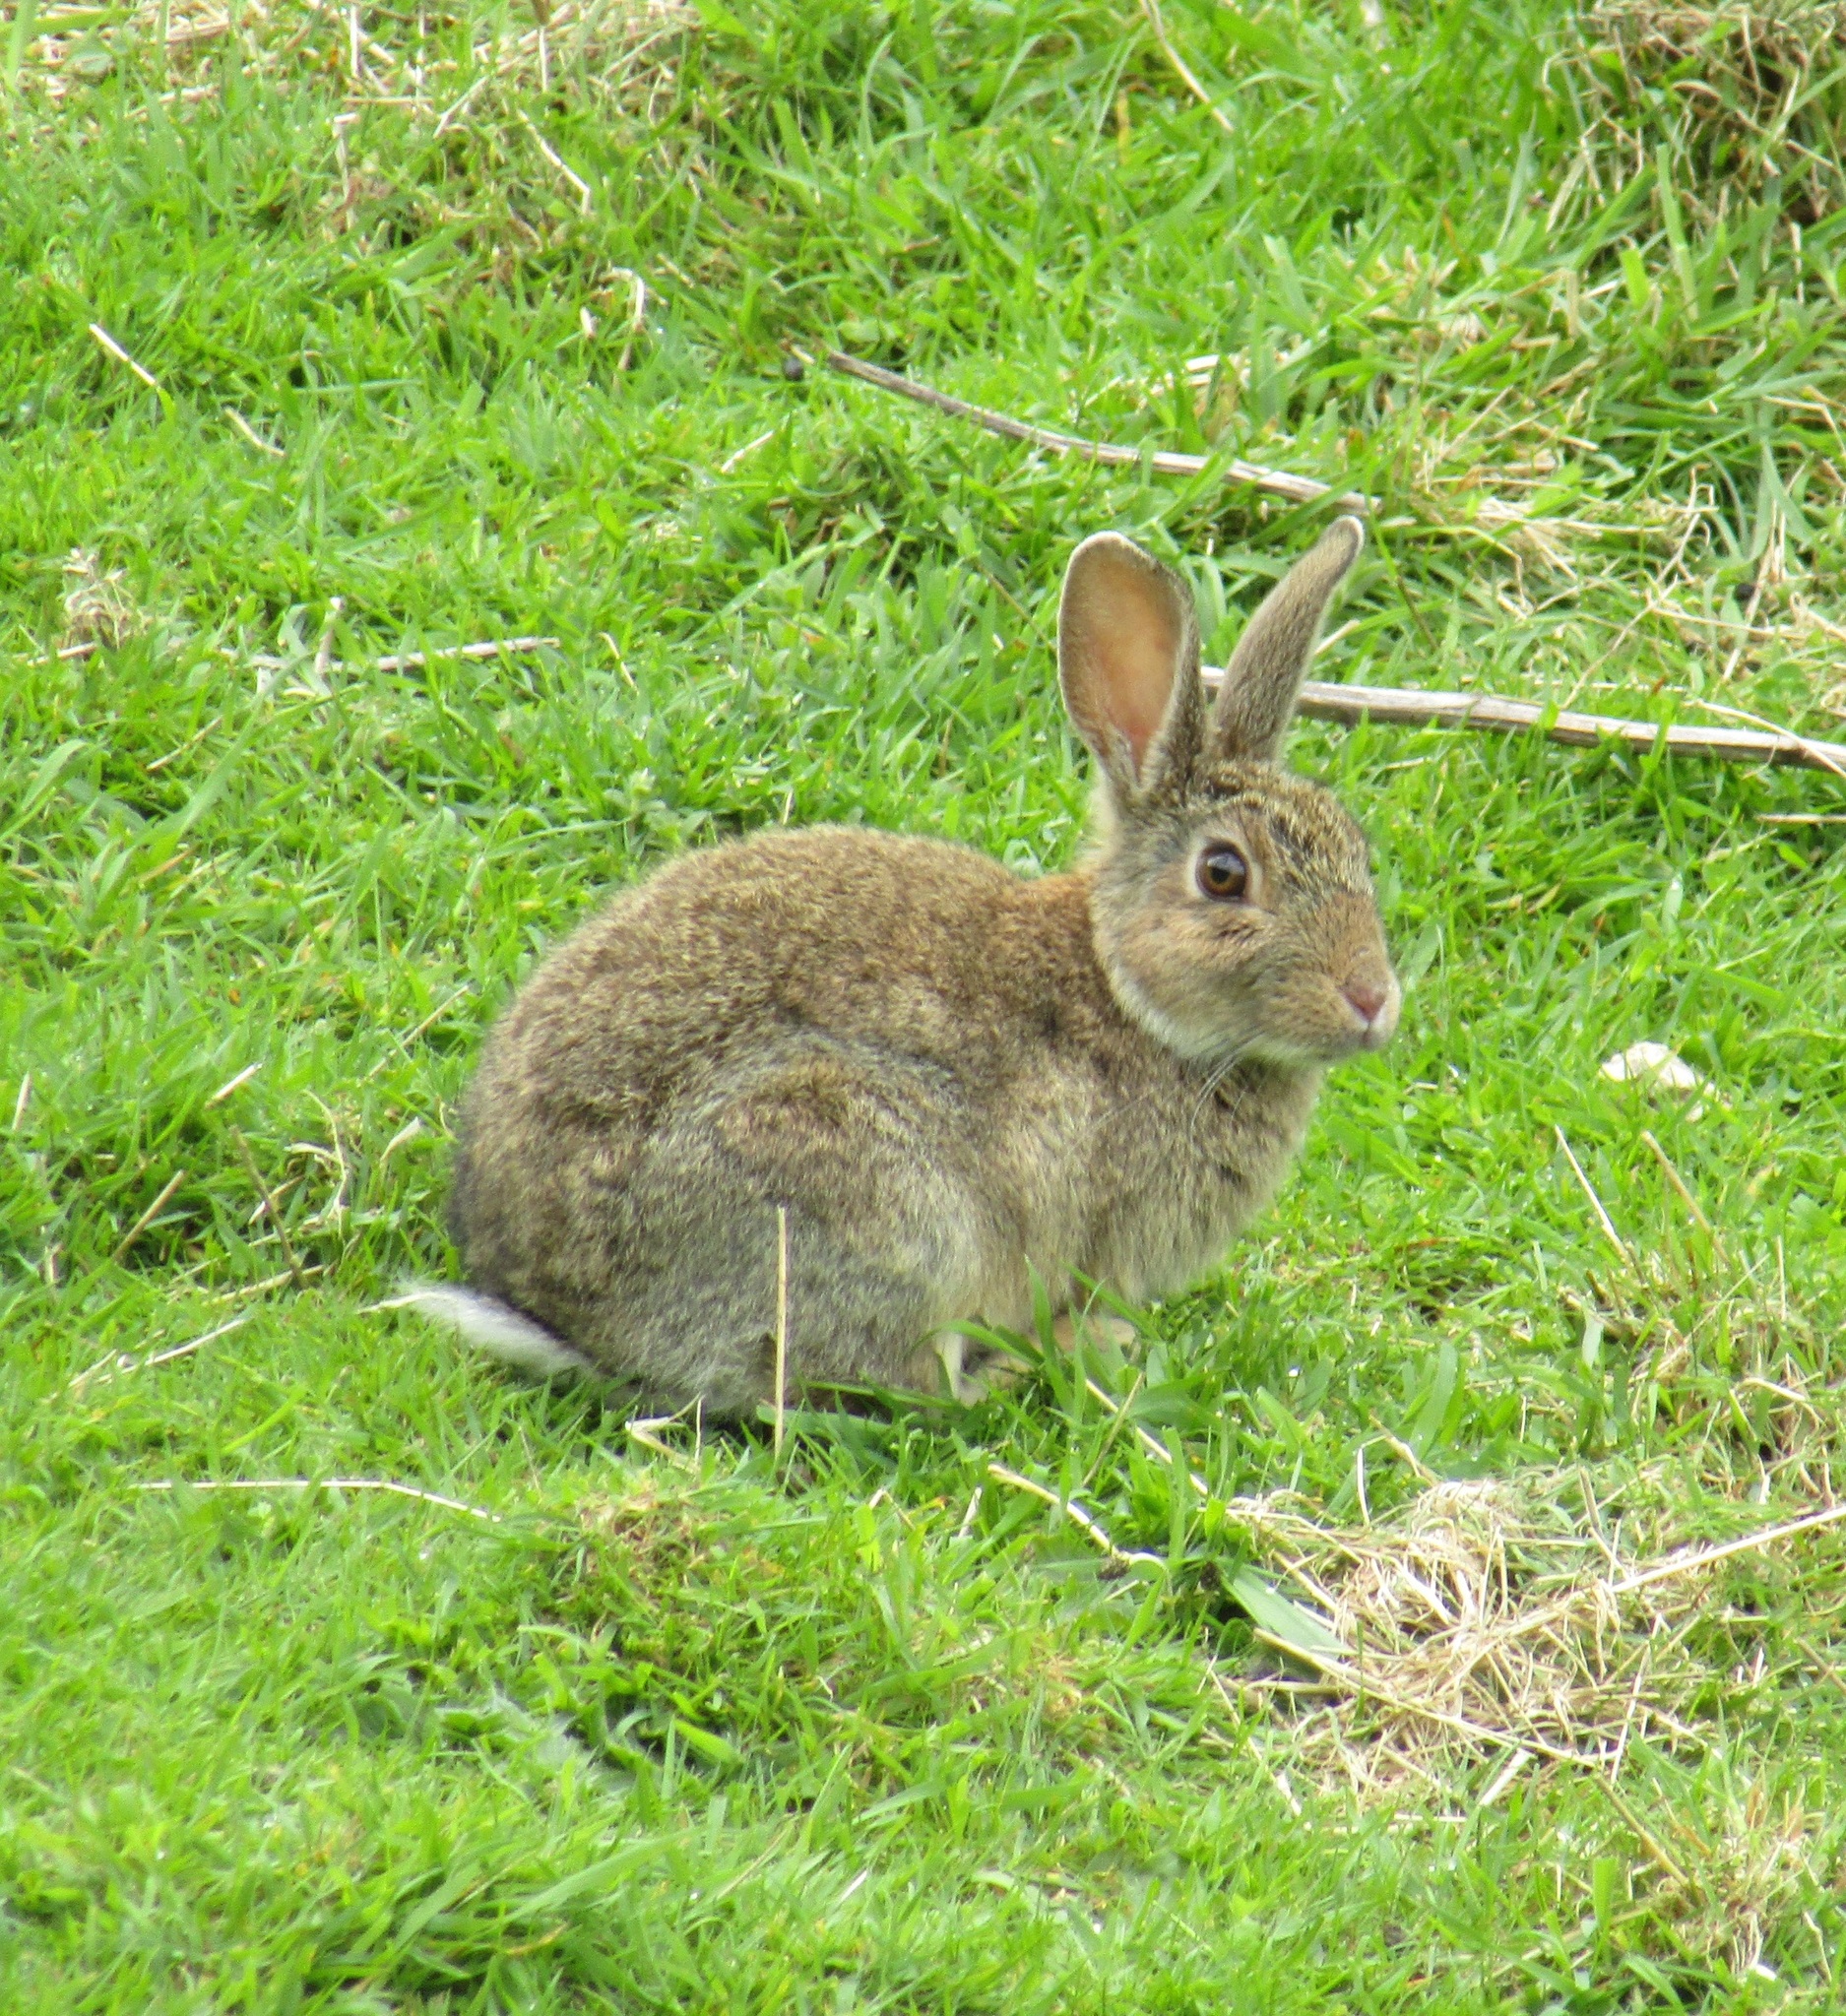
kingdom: Animalia
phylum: Chordata
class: Mammalia
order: Lagomorpha
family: Leporidae
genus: Oryctolagus
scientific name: Oryctolagus cuniculus
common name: European rabbit
